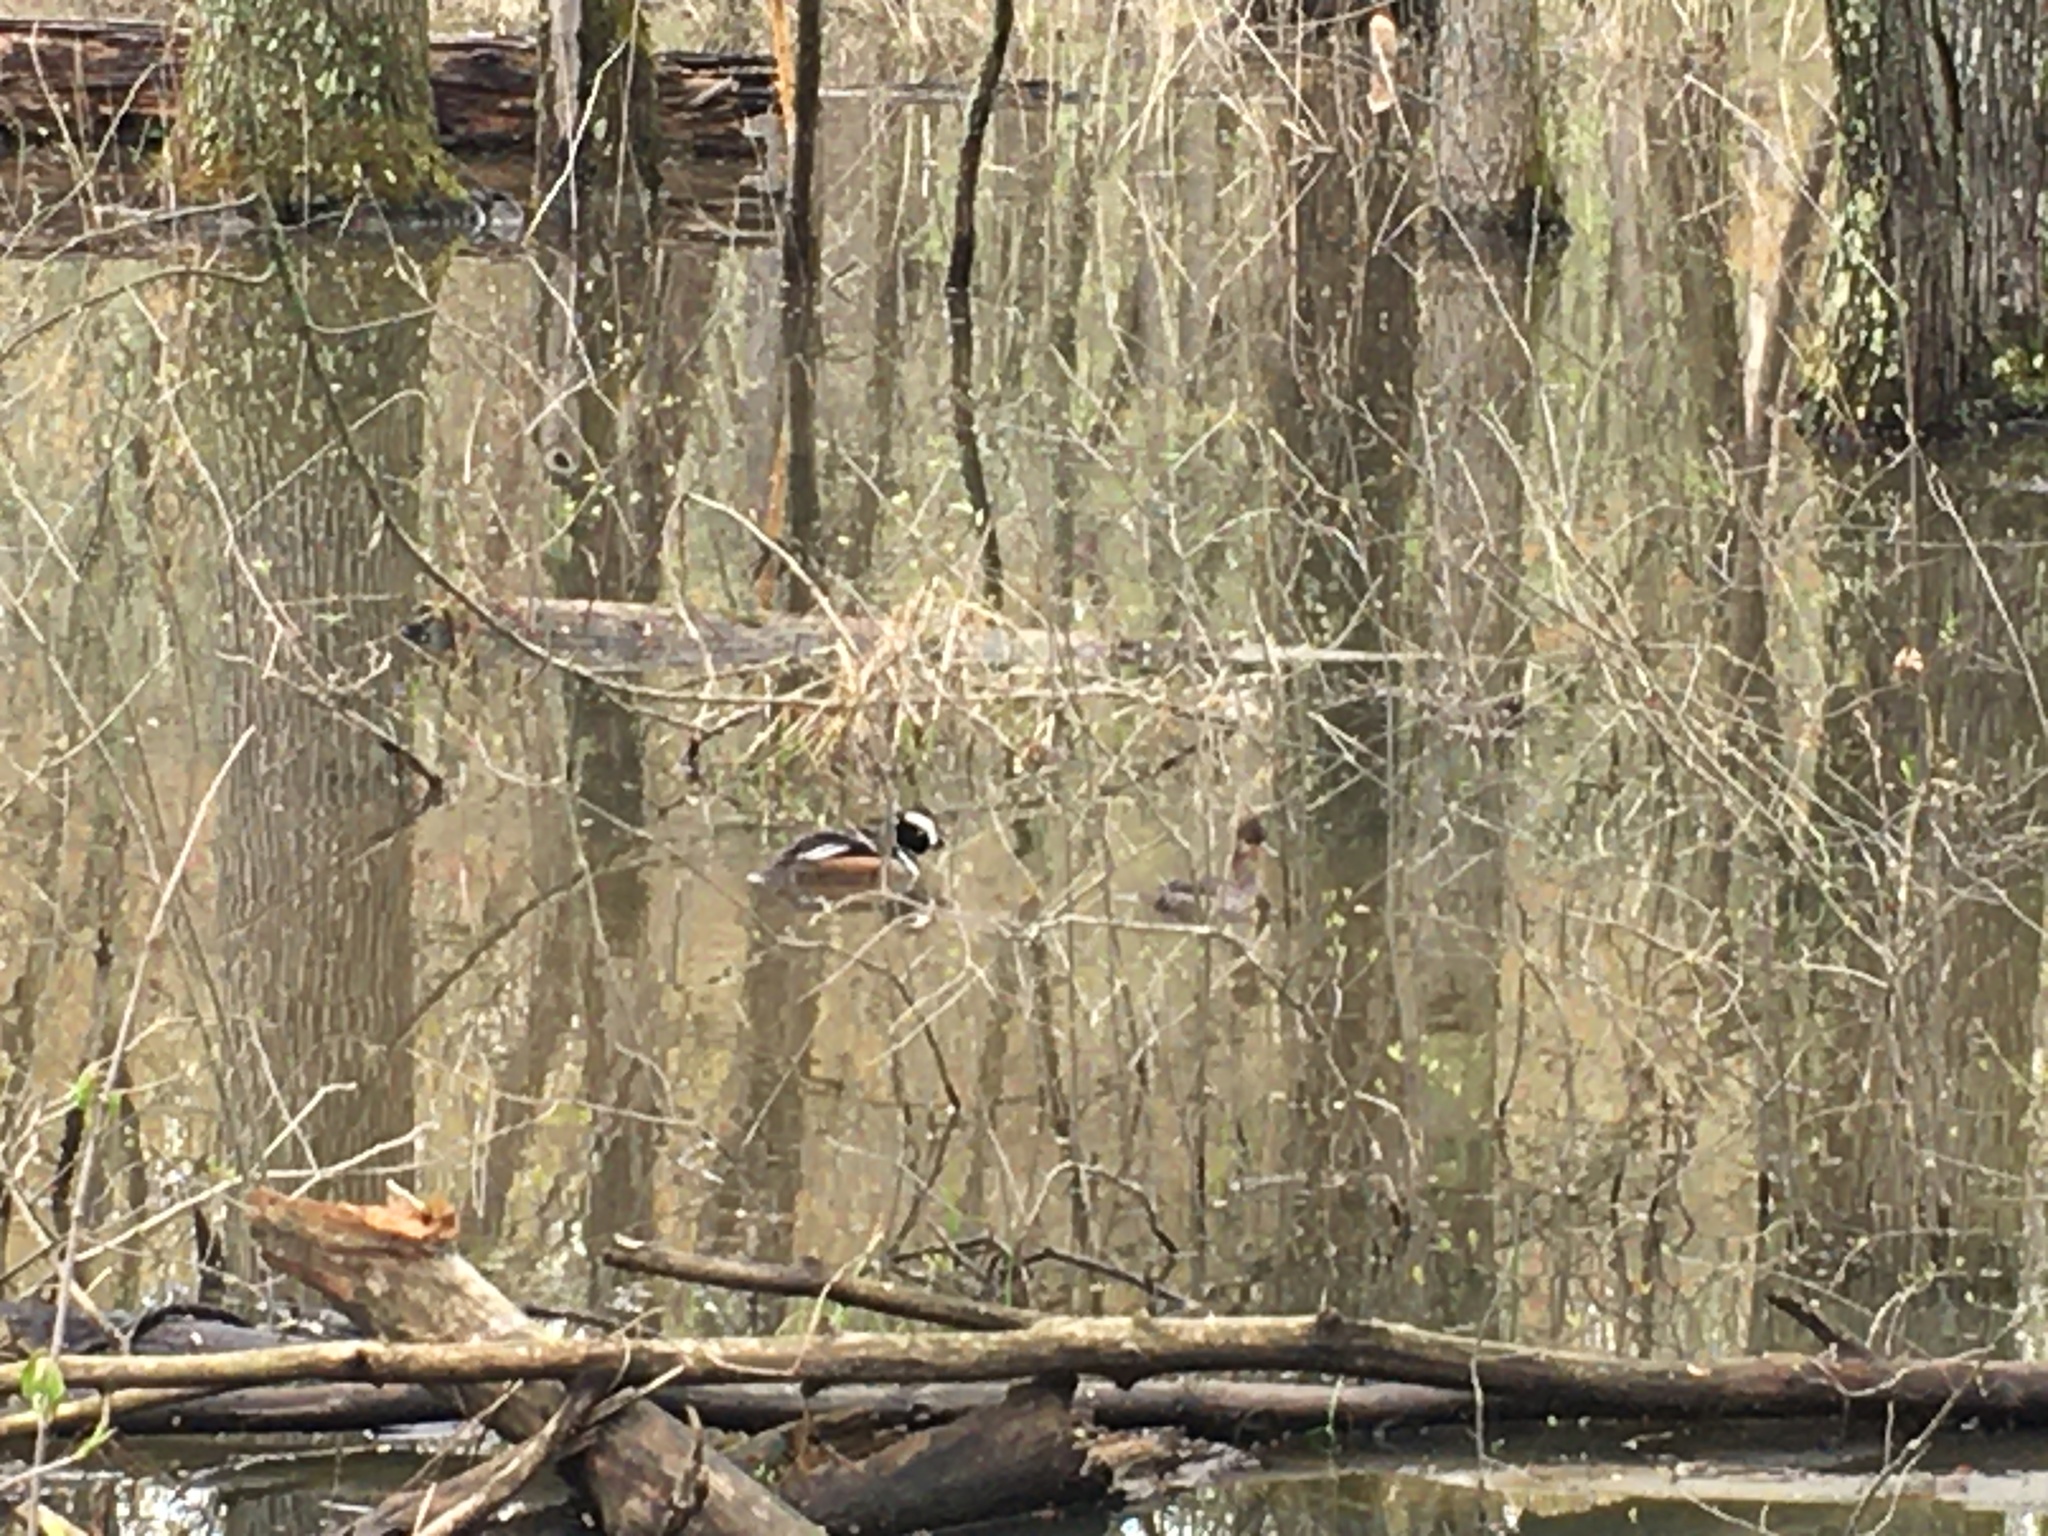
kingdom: Animalia
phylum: Chordata
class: Aves
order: Anseriformes
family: Anatidae
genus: Lophodytes
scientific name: Lophodytes cucullatus
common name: Hooded merganser
